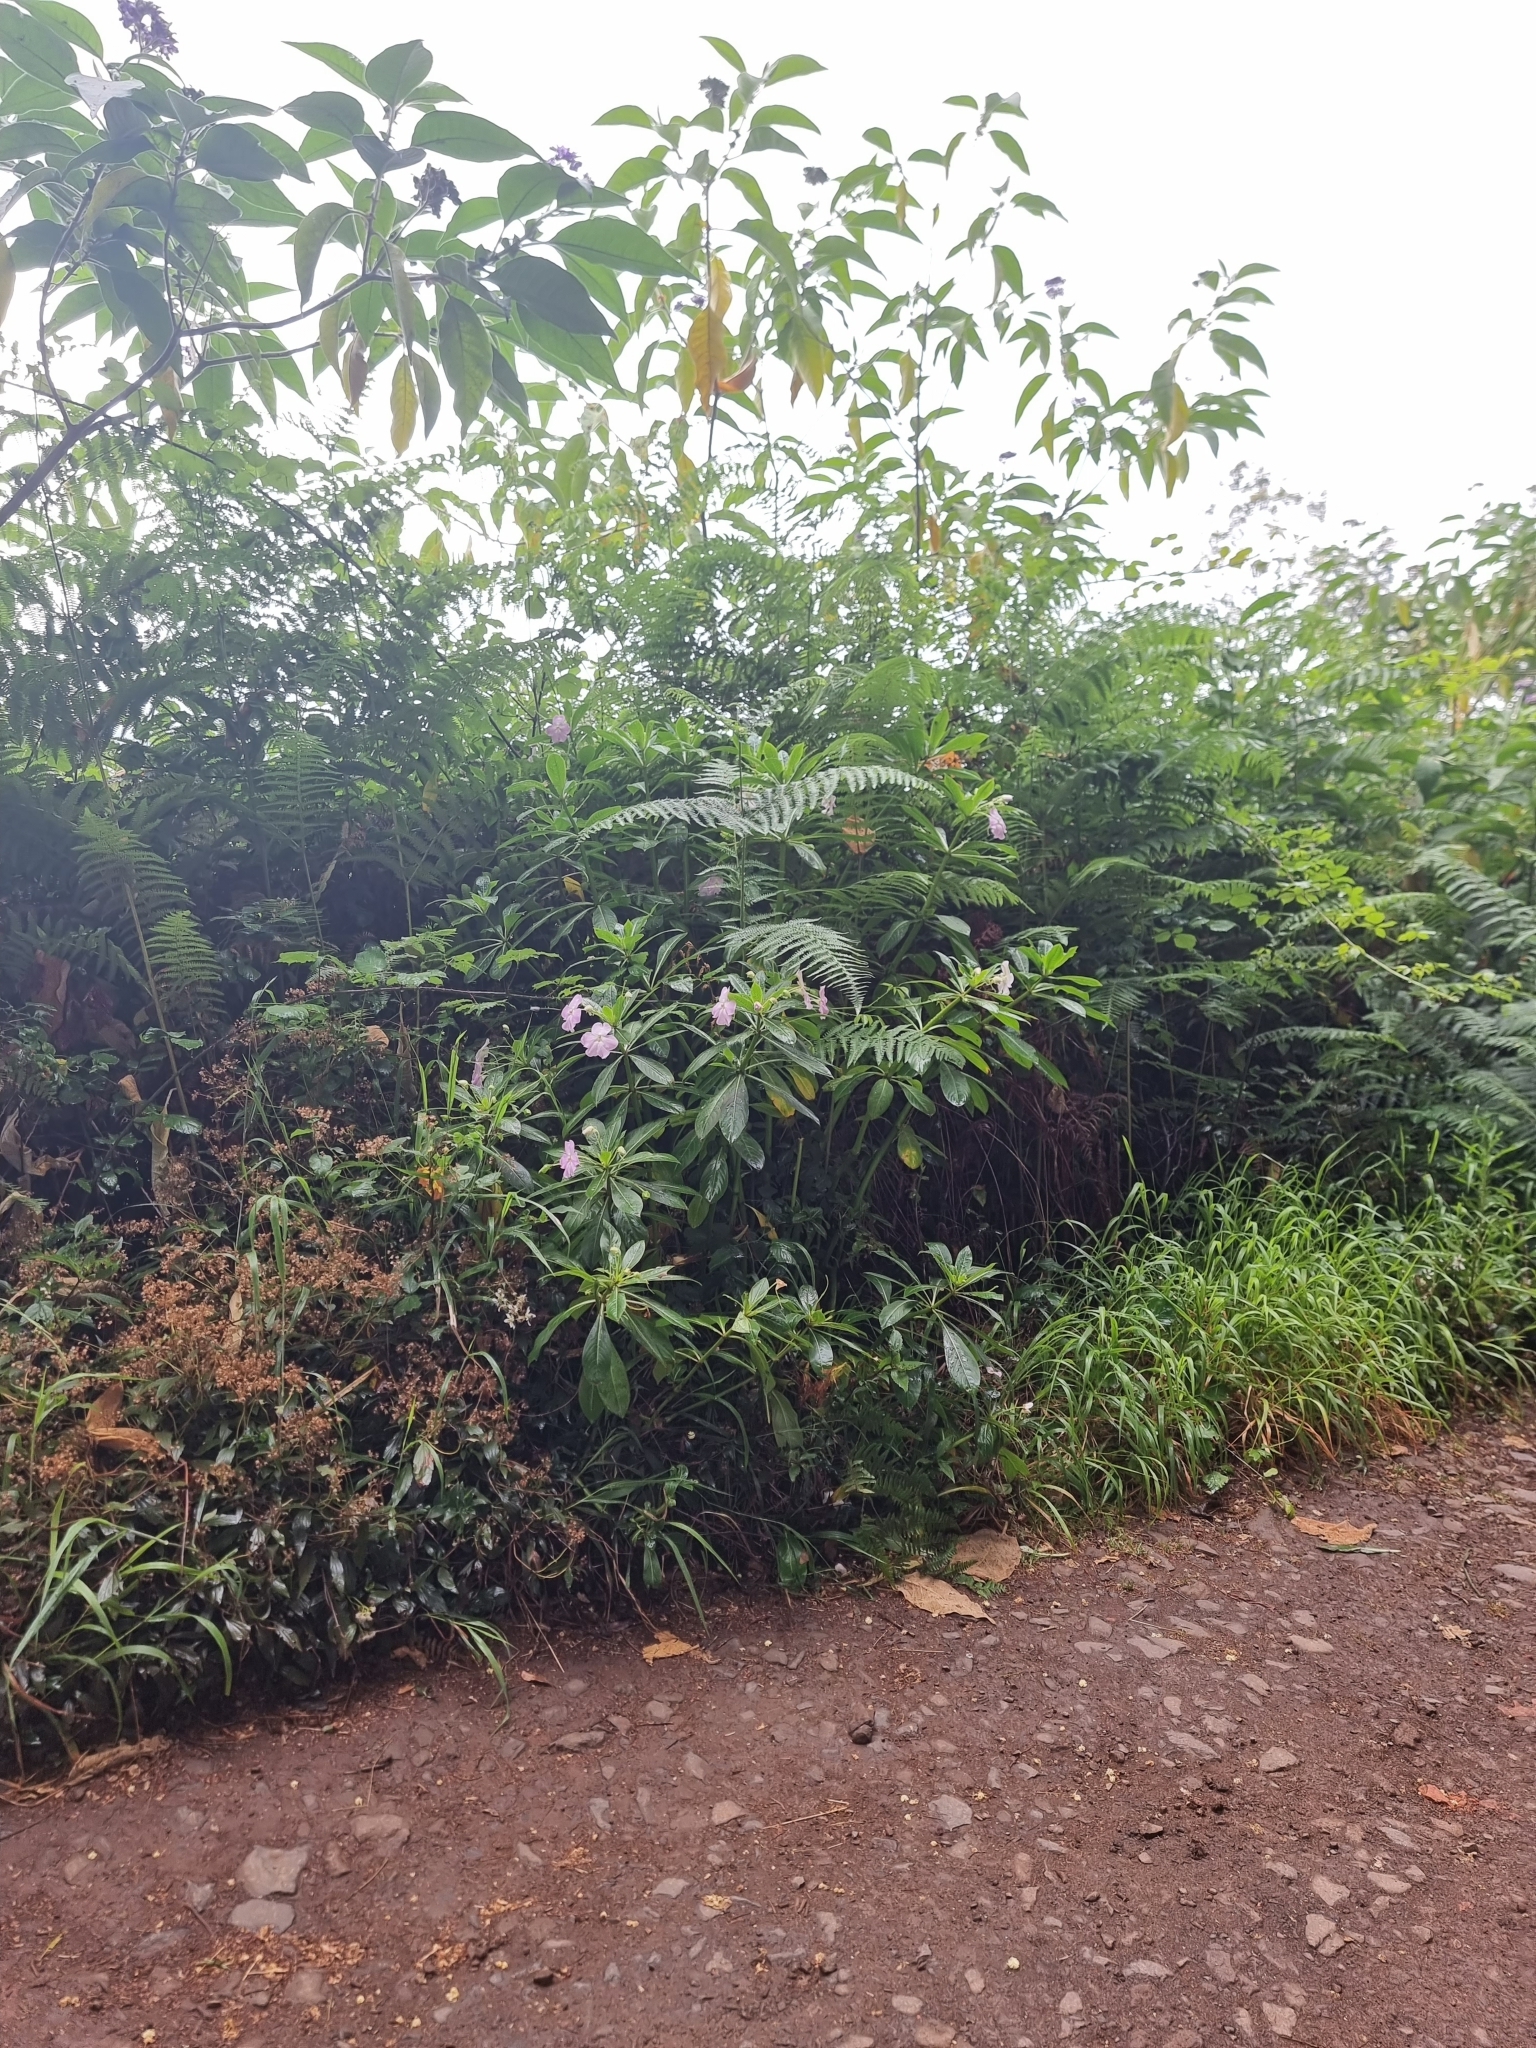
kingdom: Plantae
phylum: Tracheophyta
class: Magnoliopsida
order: Ericales
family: Balsaminaceae
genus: Impatiens
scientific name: Impatiens sodenii
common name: Oliver's touch-me-not
